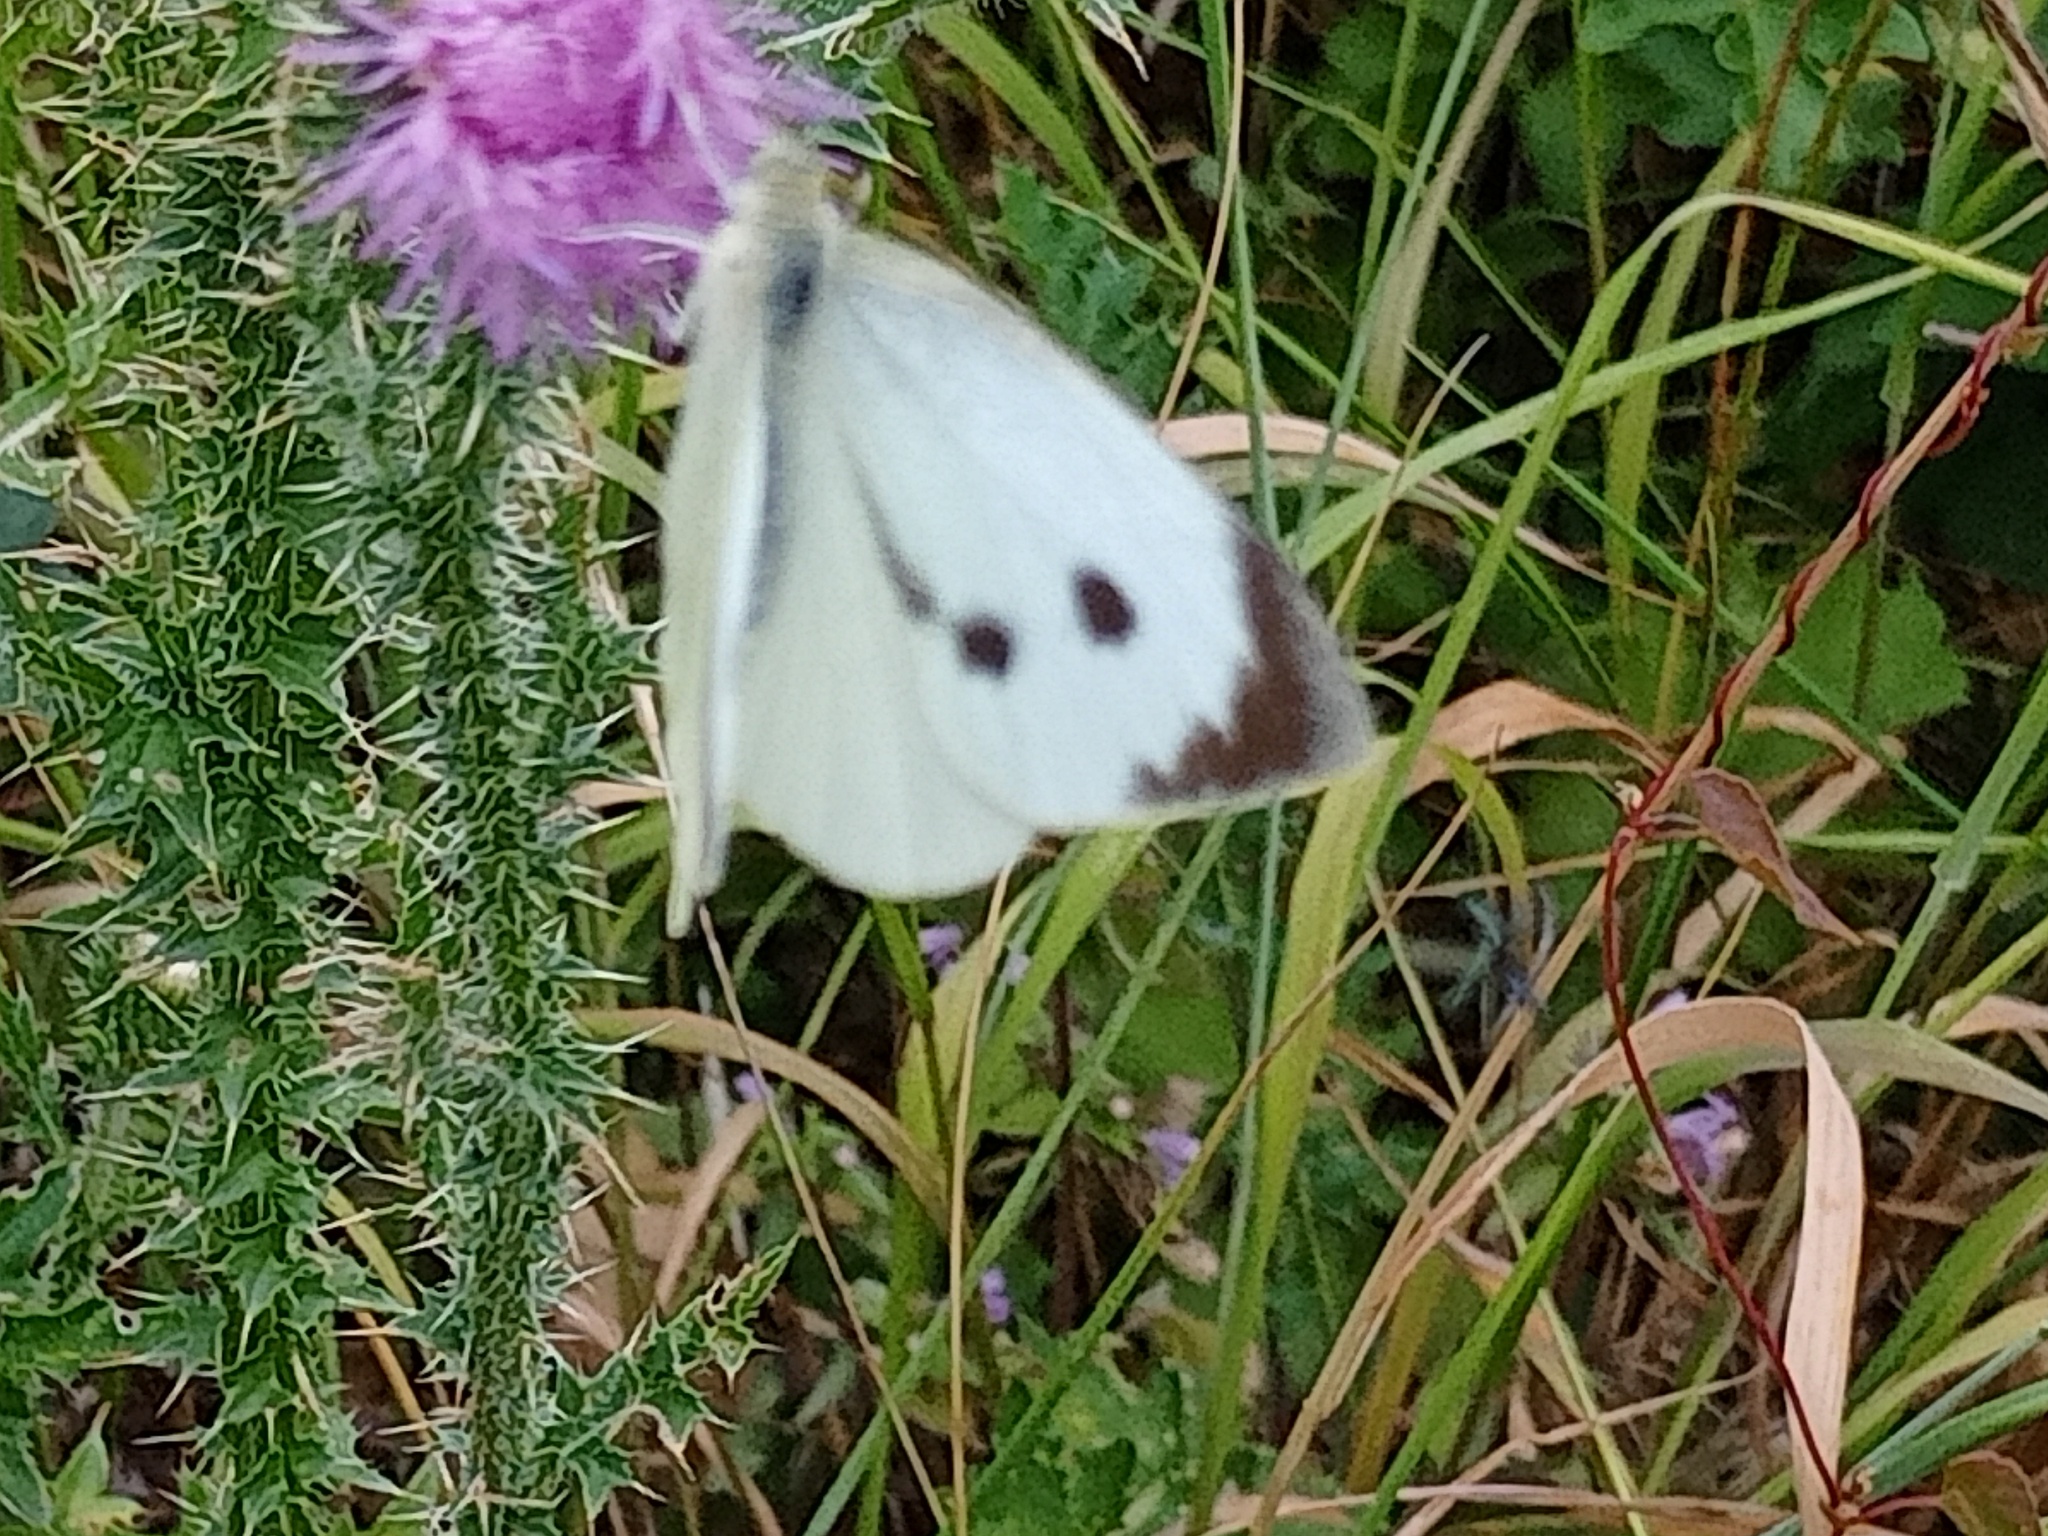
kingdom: Animalia
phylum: Arthropoda
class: Insecta
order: Lepidoptera
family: Pieridae
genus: Pieris
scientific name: Pieris brassicae
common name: Large white
